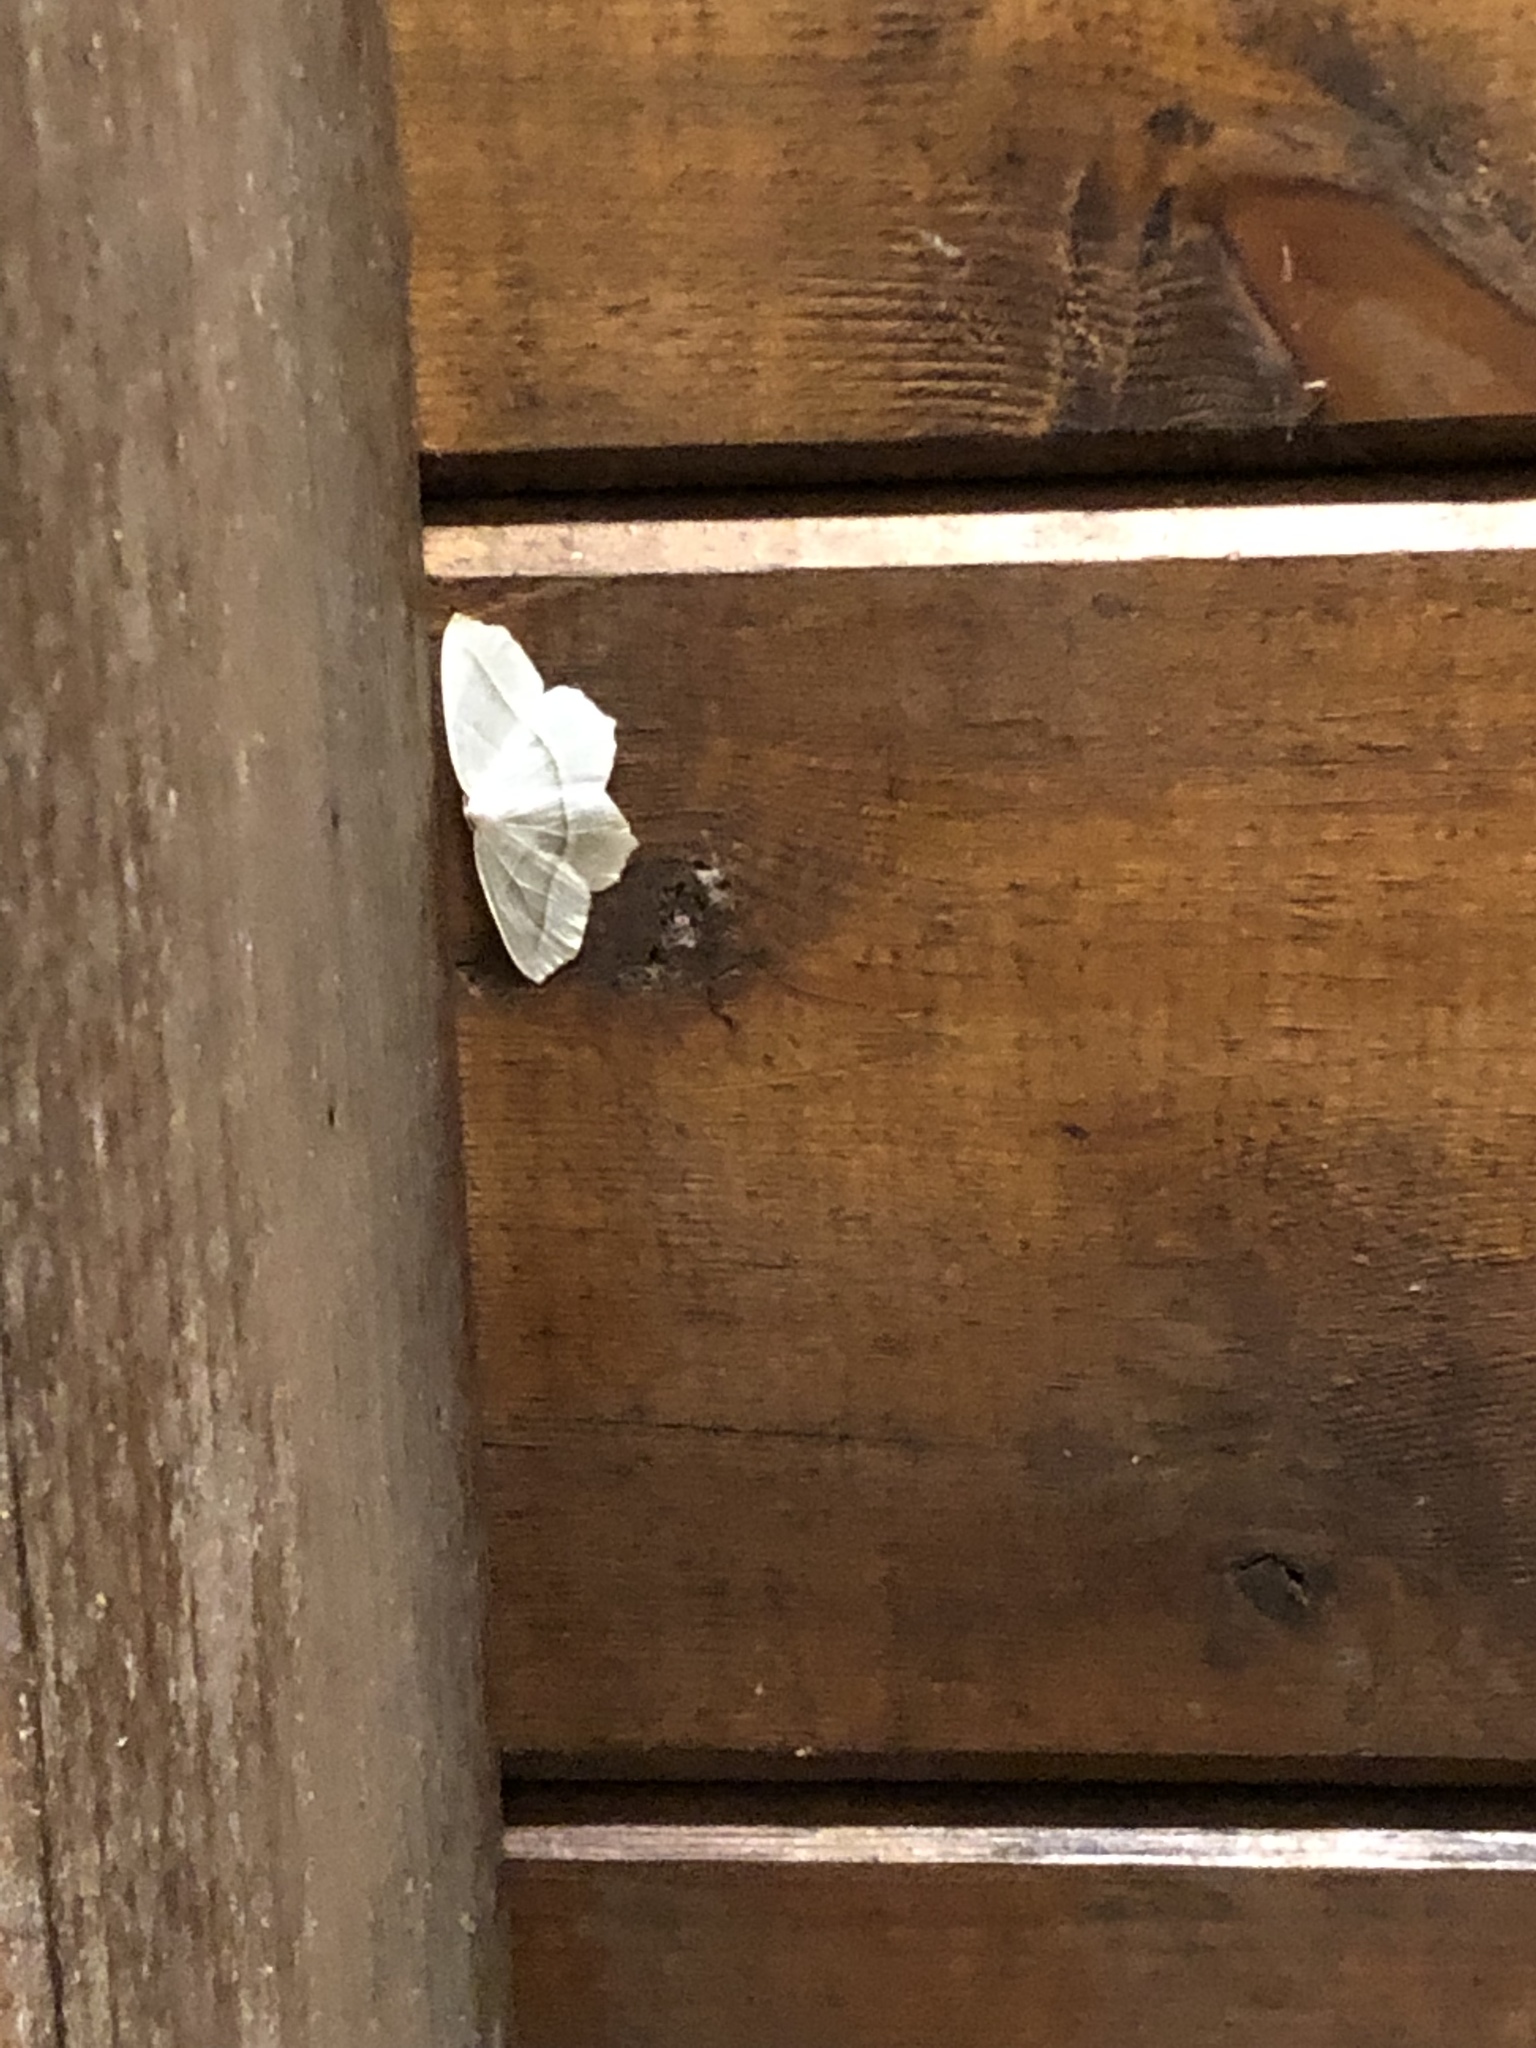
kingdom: Animalia
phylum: Arthropoda
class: Insecta
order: Lepidoptera
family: Geometridae
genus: Campaea
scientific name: Campaea perlata
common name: Fringed looper
